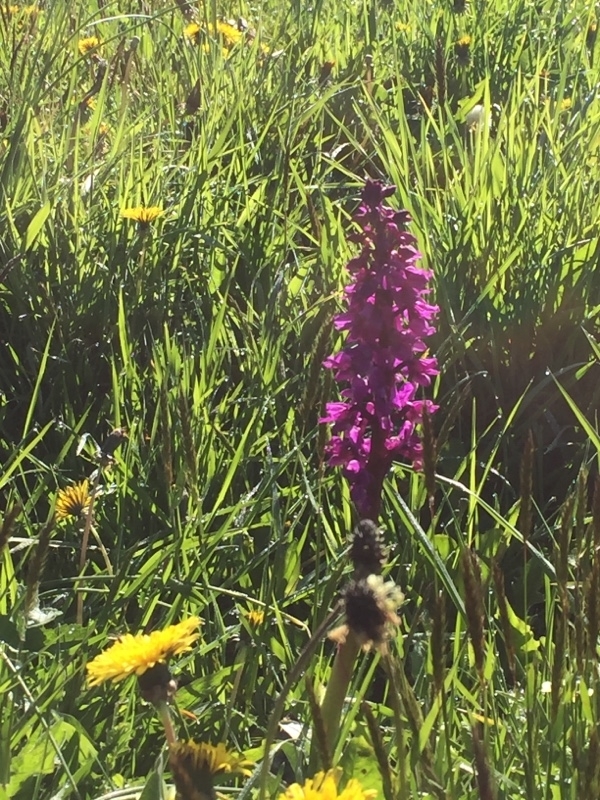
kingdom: Plantae
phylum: Tracheophyta
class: Liliopsida
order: Asparagales
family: Orchidaceae
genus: Orchis
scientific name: Orchis mascula
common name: Early-purple orchid
